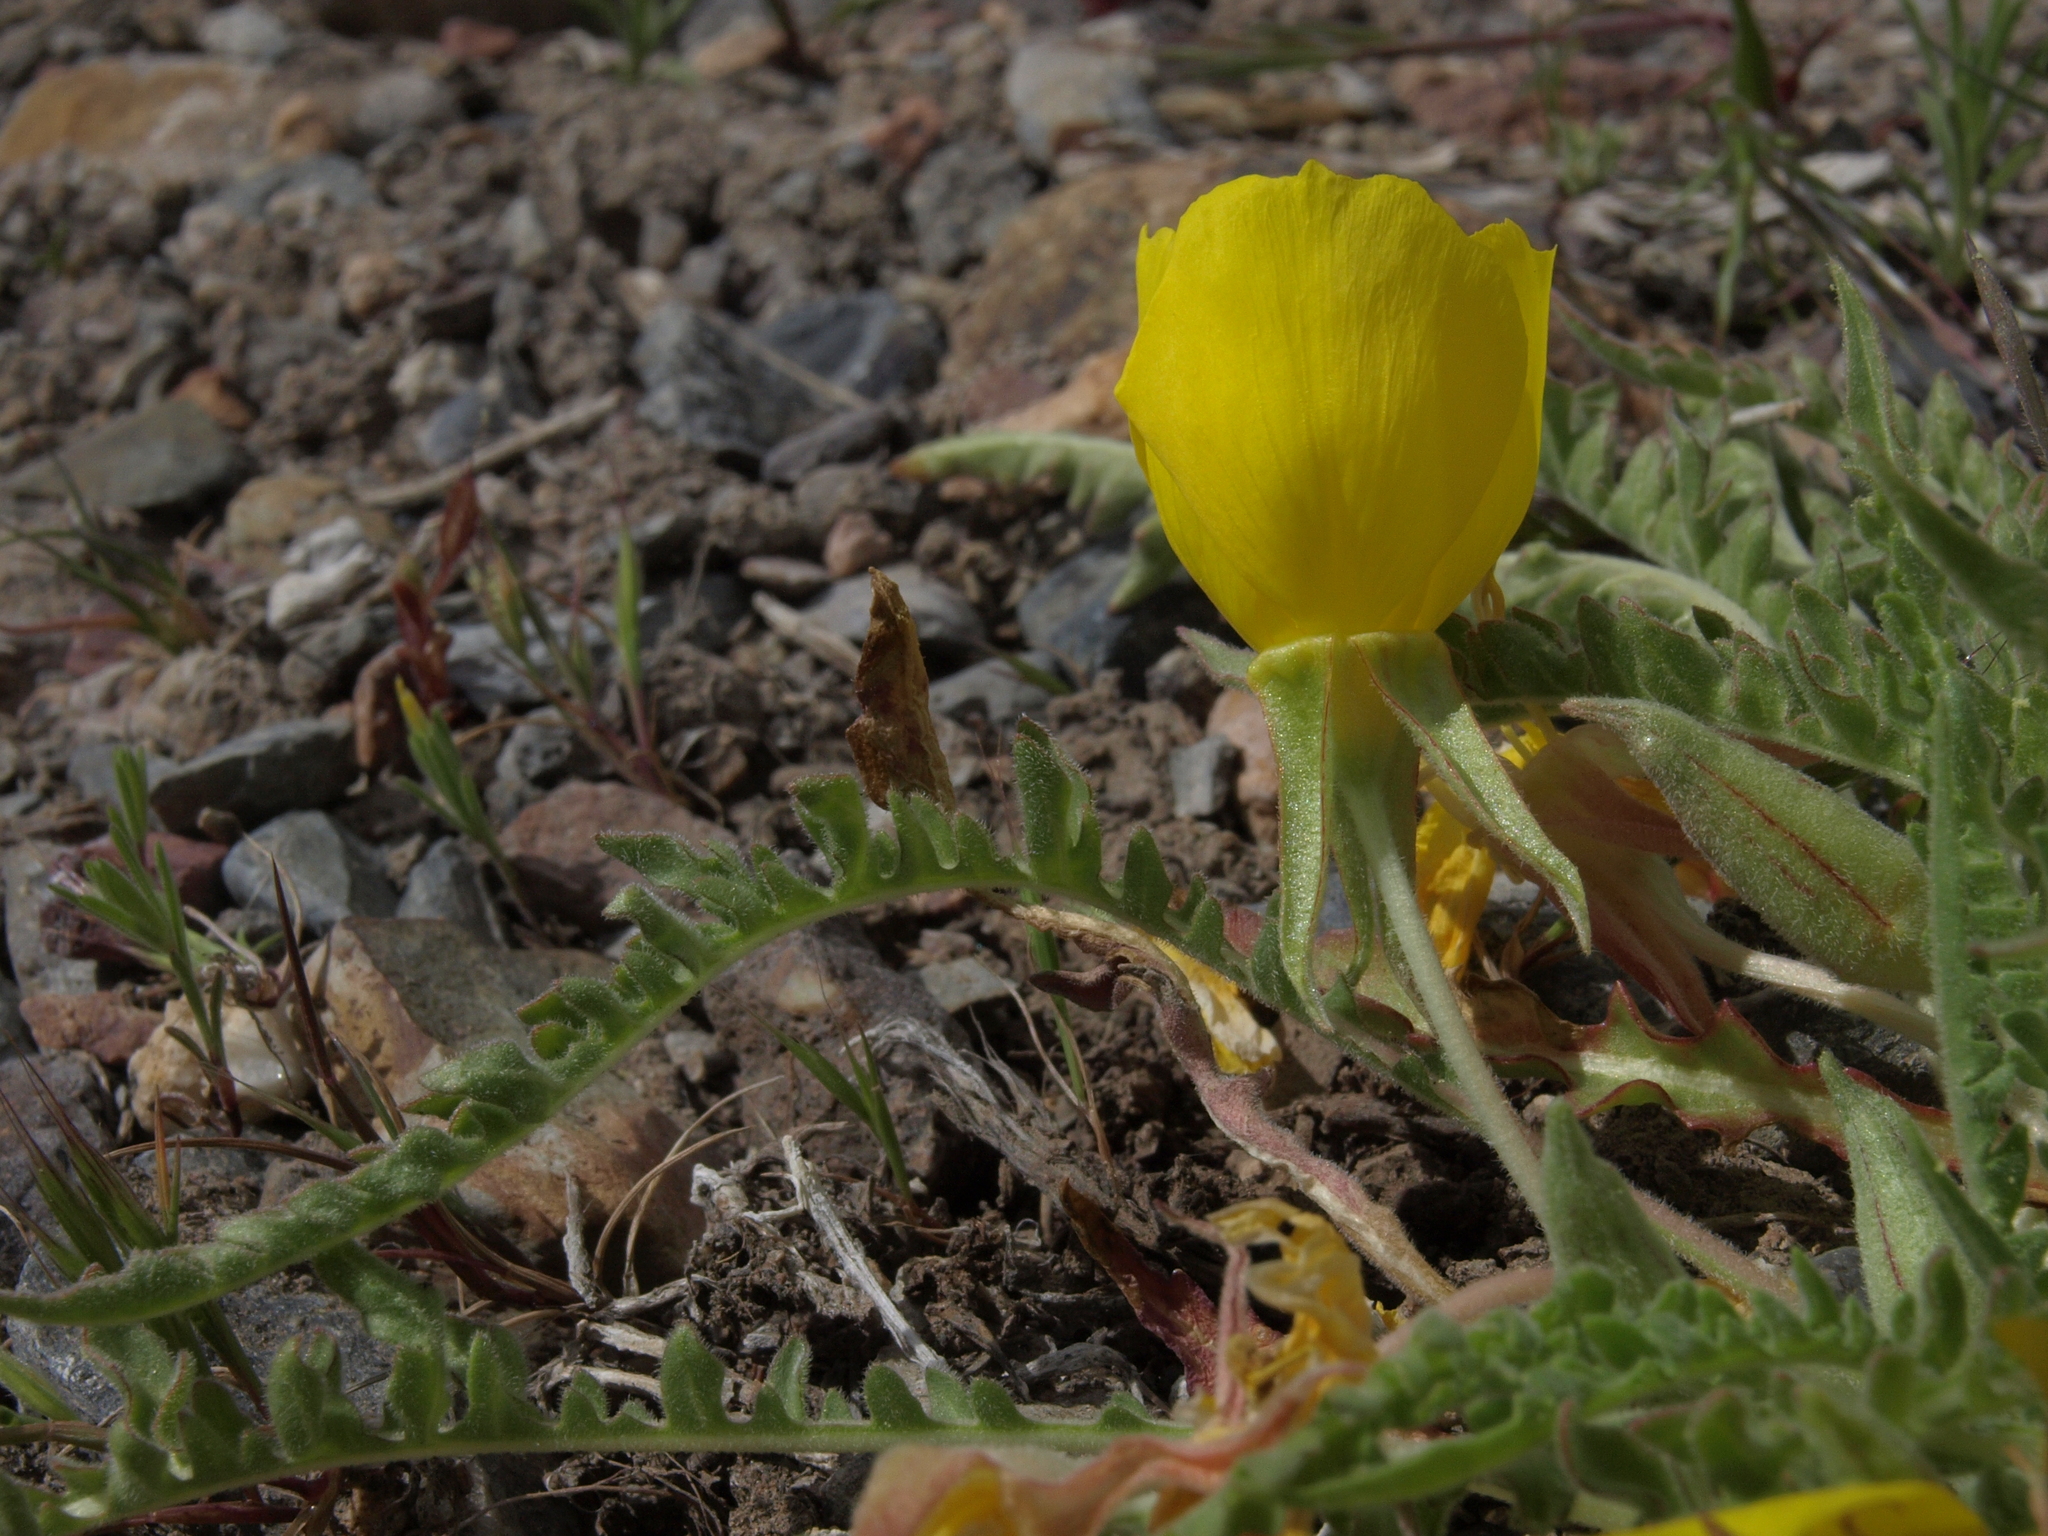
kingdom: Plantae
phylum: Tracheophyta
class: Magnoliopsida
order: Myrtales
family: Onagraceae
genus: Taraxia
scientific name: Taraxia tanacetifolia
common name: Tansyleaf evening primrose
